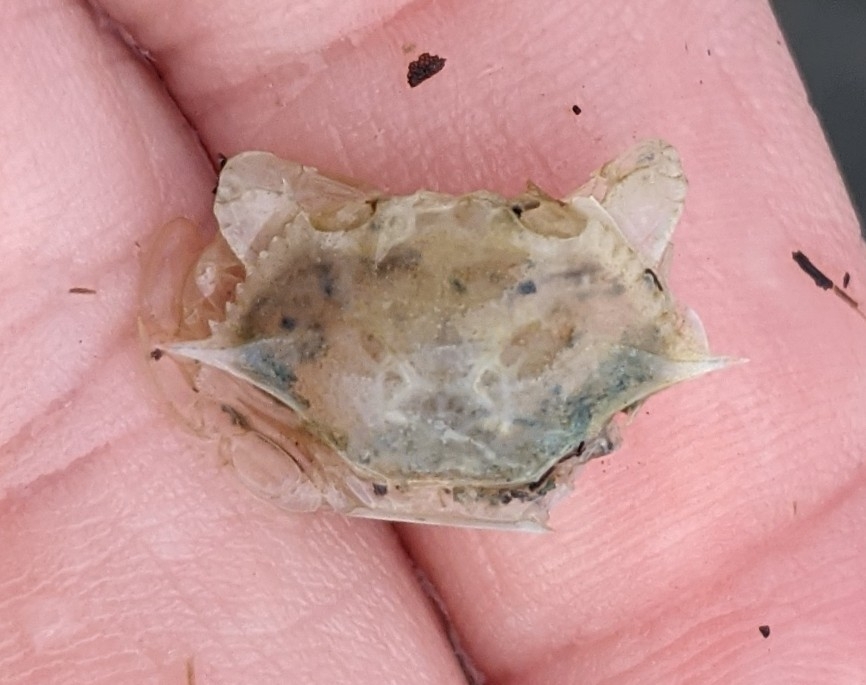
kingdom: Animalia
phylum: Arthropoda
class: Malacostraca
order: Decapoda
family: Portunidae
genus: Callinectes
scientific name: Callinectes sapidus
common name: Blue crab
